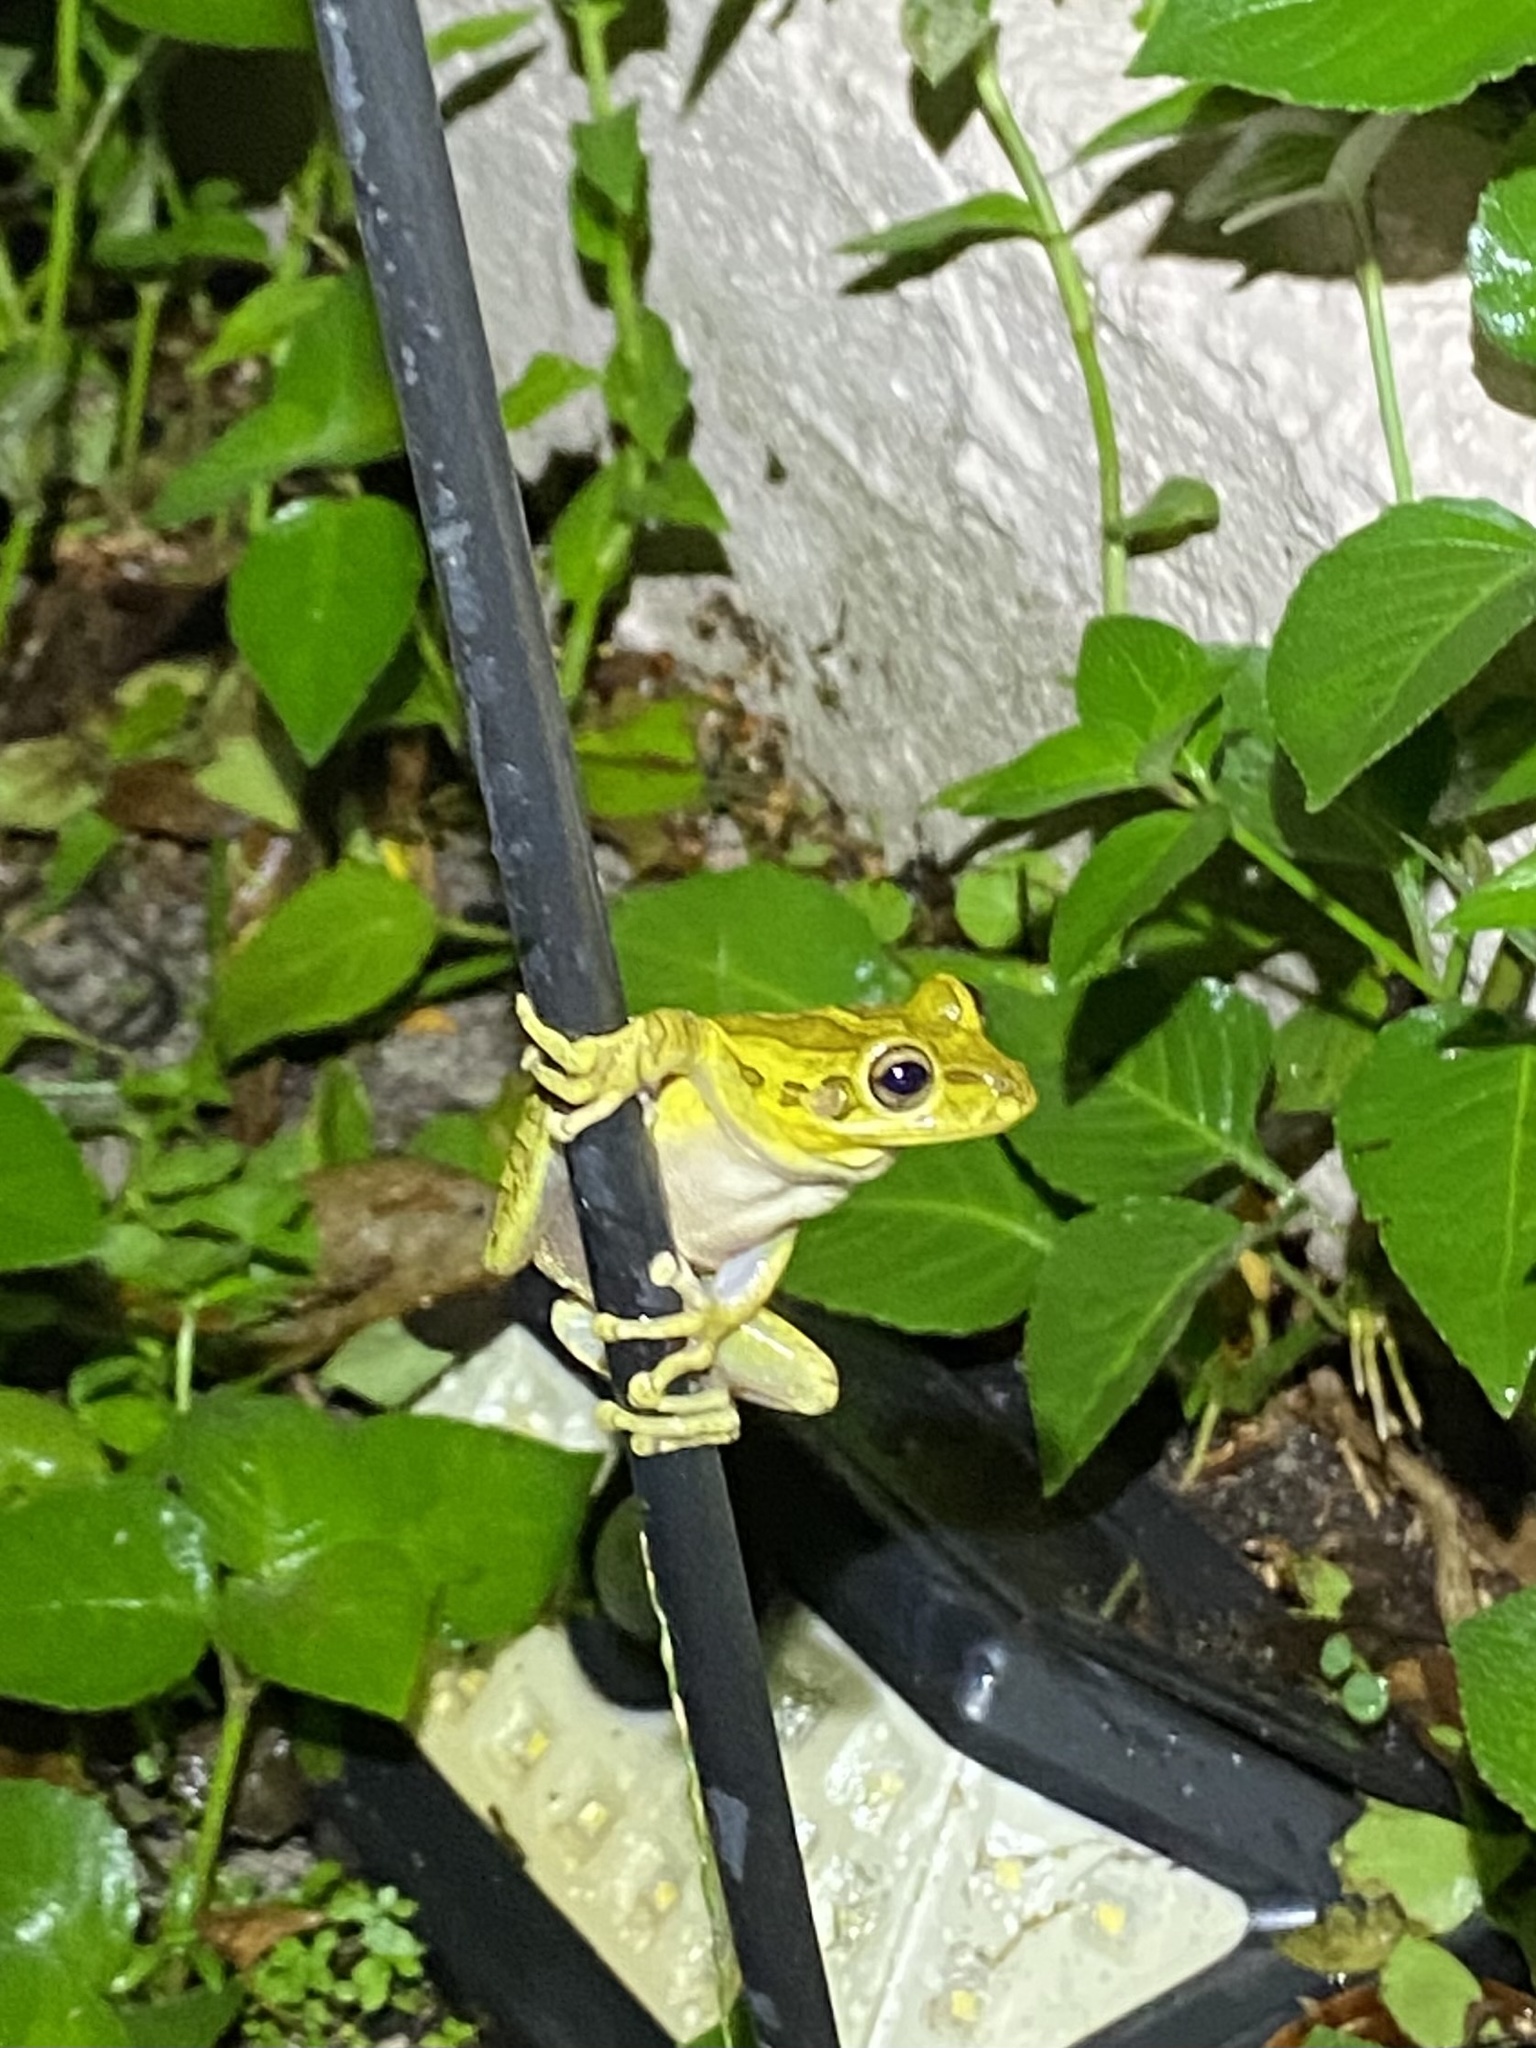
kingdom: Animalia
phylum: Chordata
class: Amphibia
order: Anura
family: Hylidae
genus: Osteopilus
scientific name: Osteopilus septentrionalis
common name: Cuban treefrog
